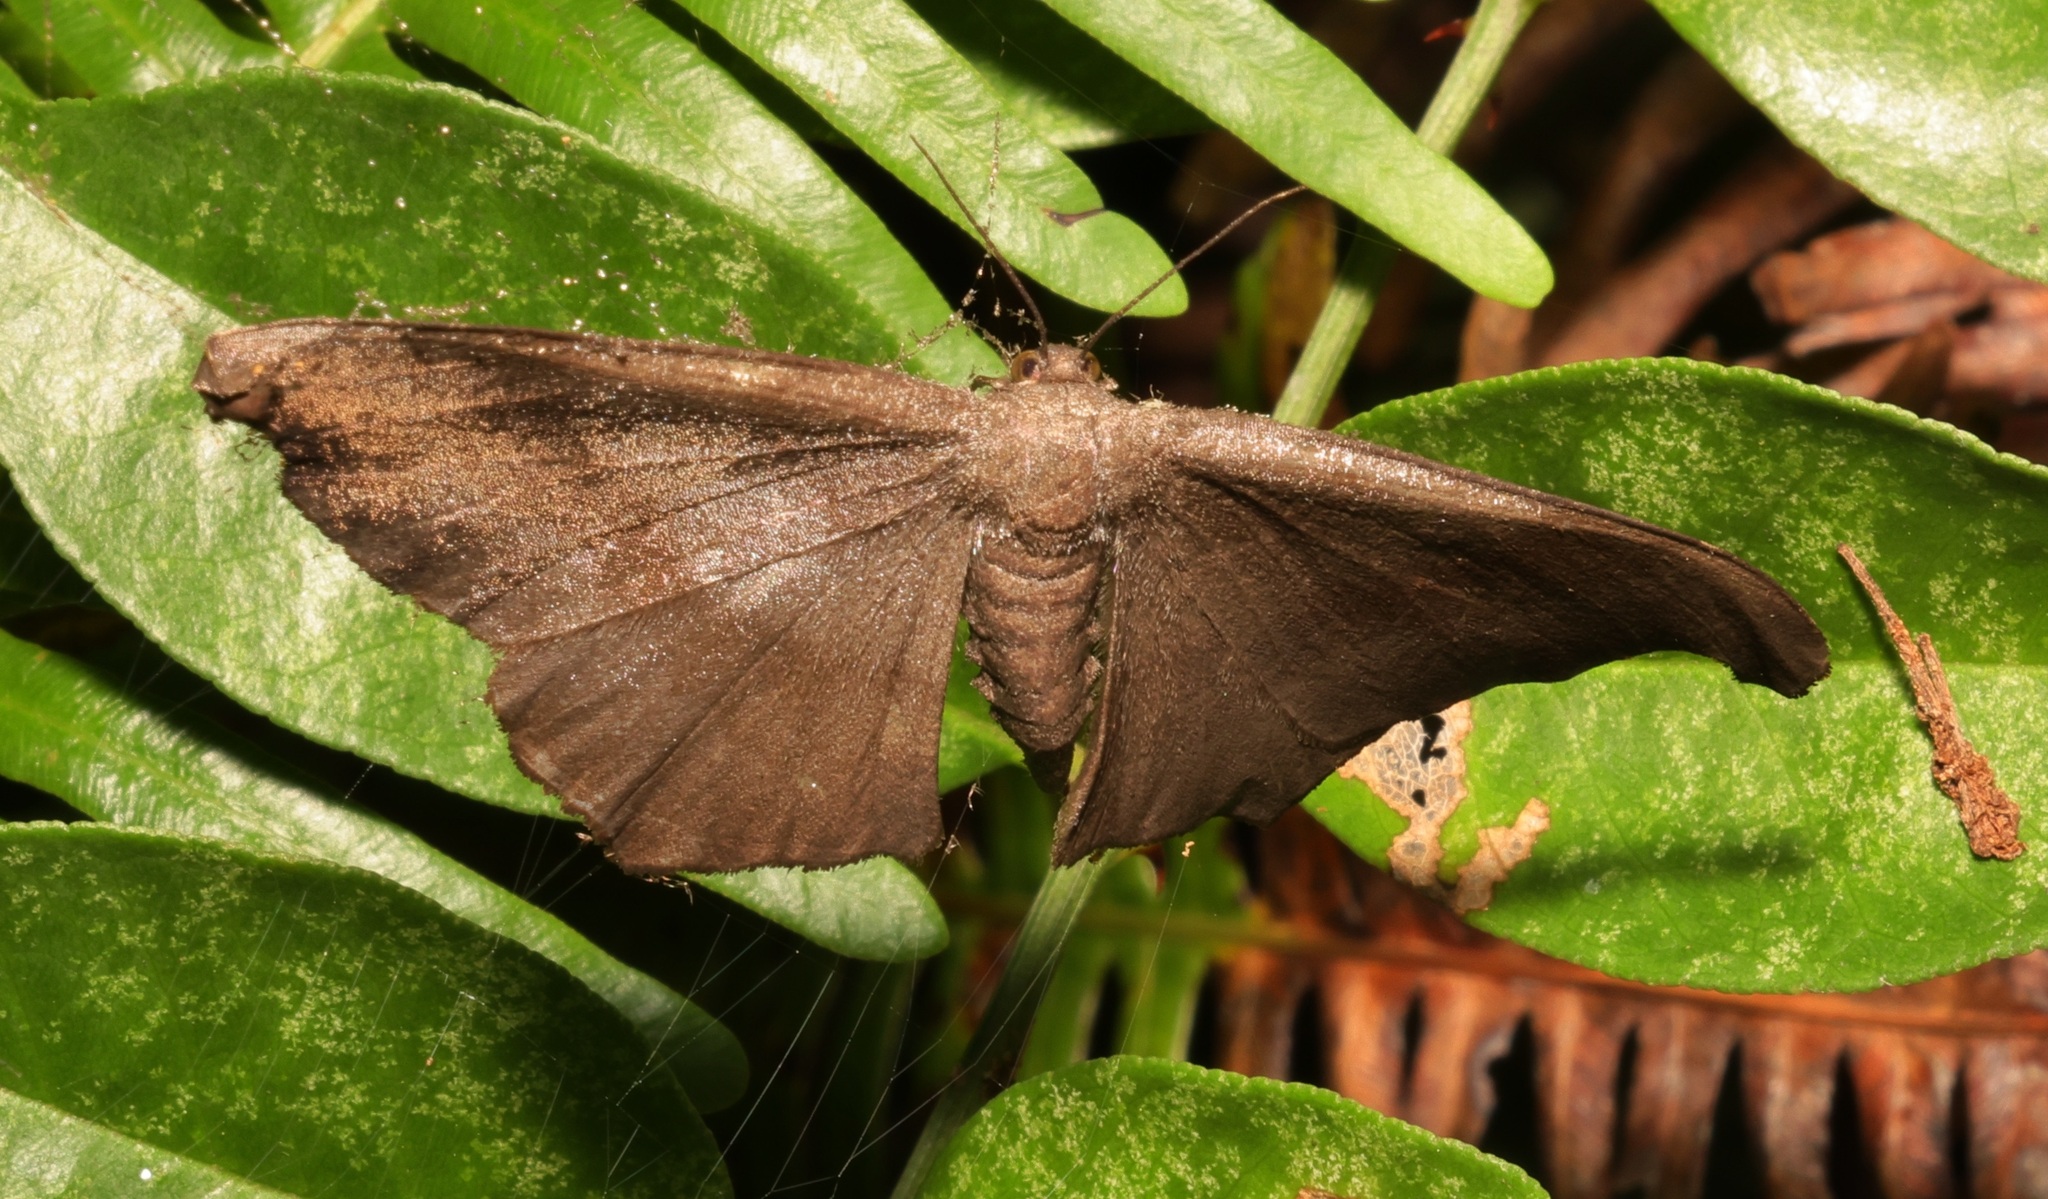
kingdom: Animalia
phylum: Arthropoda
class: Insecta
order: Lepidoptera
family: Geometridae
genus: Hyposidra
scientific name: Hyposidra talaca
